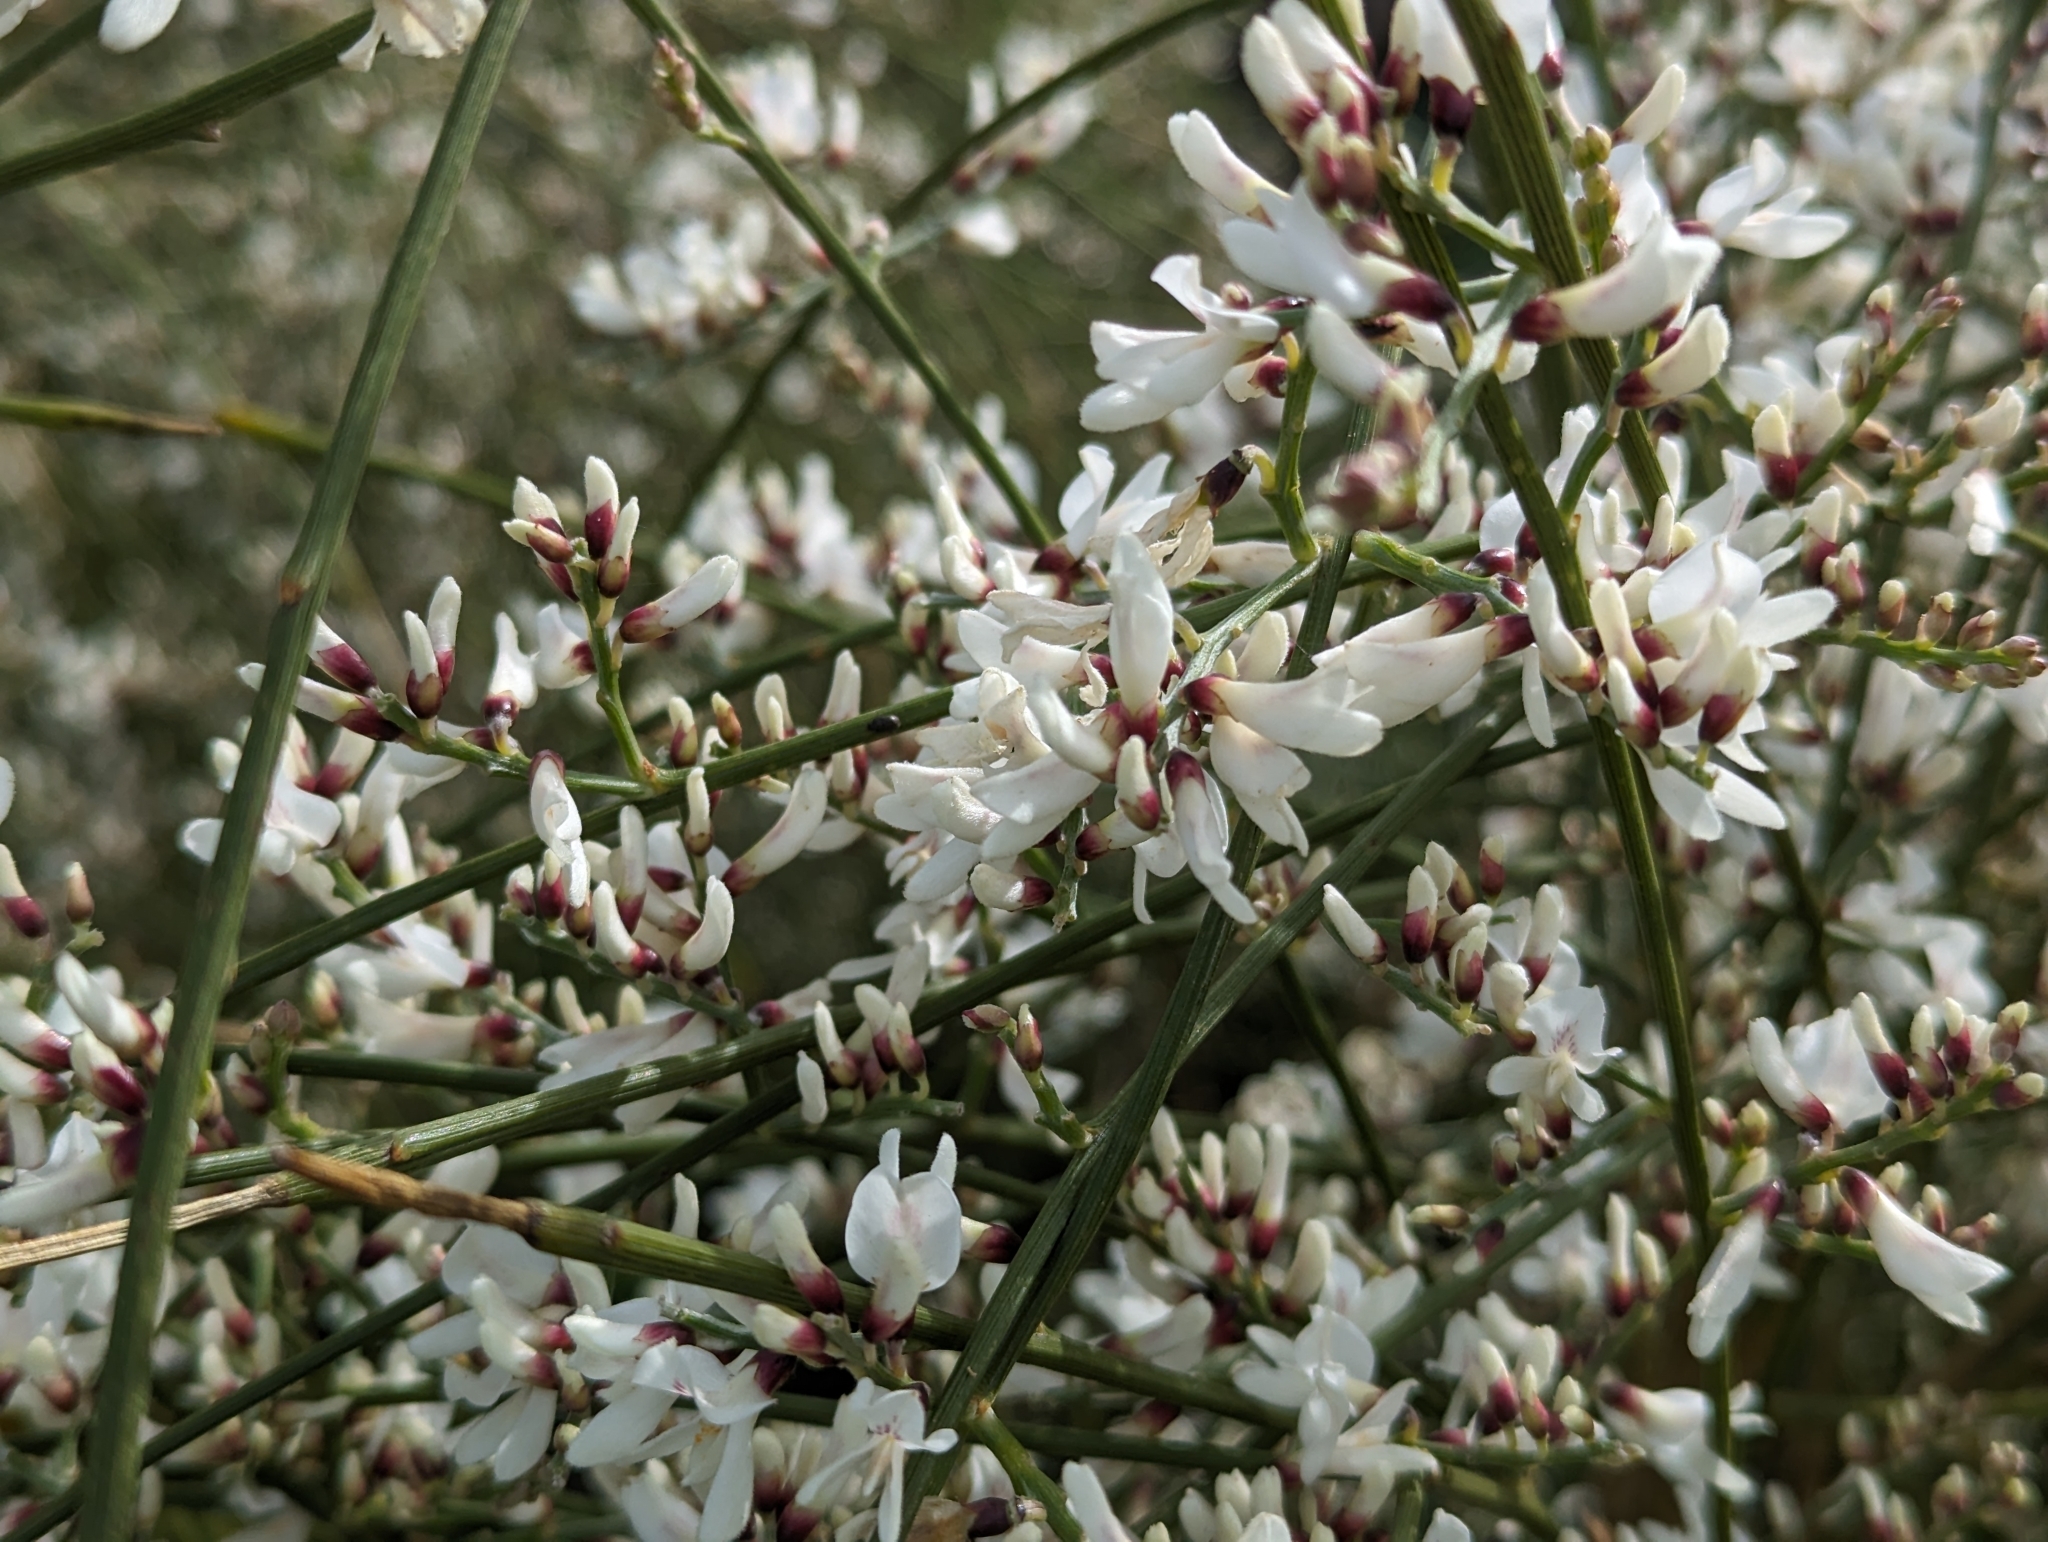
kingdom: Plantae
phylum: Tracheophyta
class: Magnoliopsida
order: Fabales
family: Fabaceae
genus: Retama
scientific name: Retama monosperma
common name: Bridal broom
